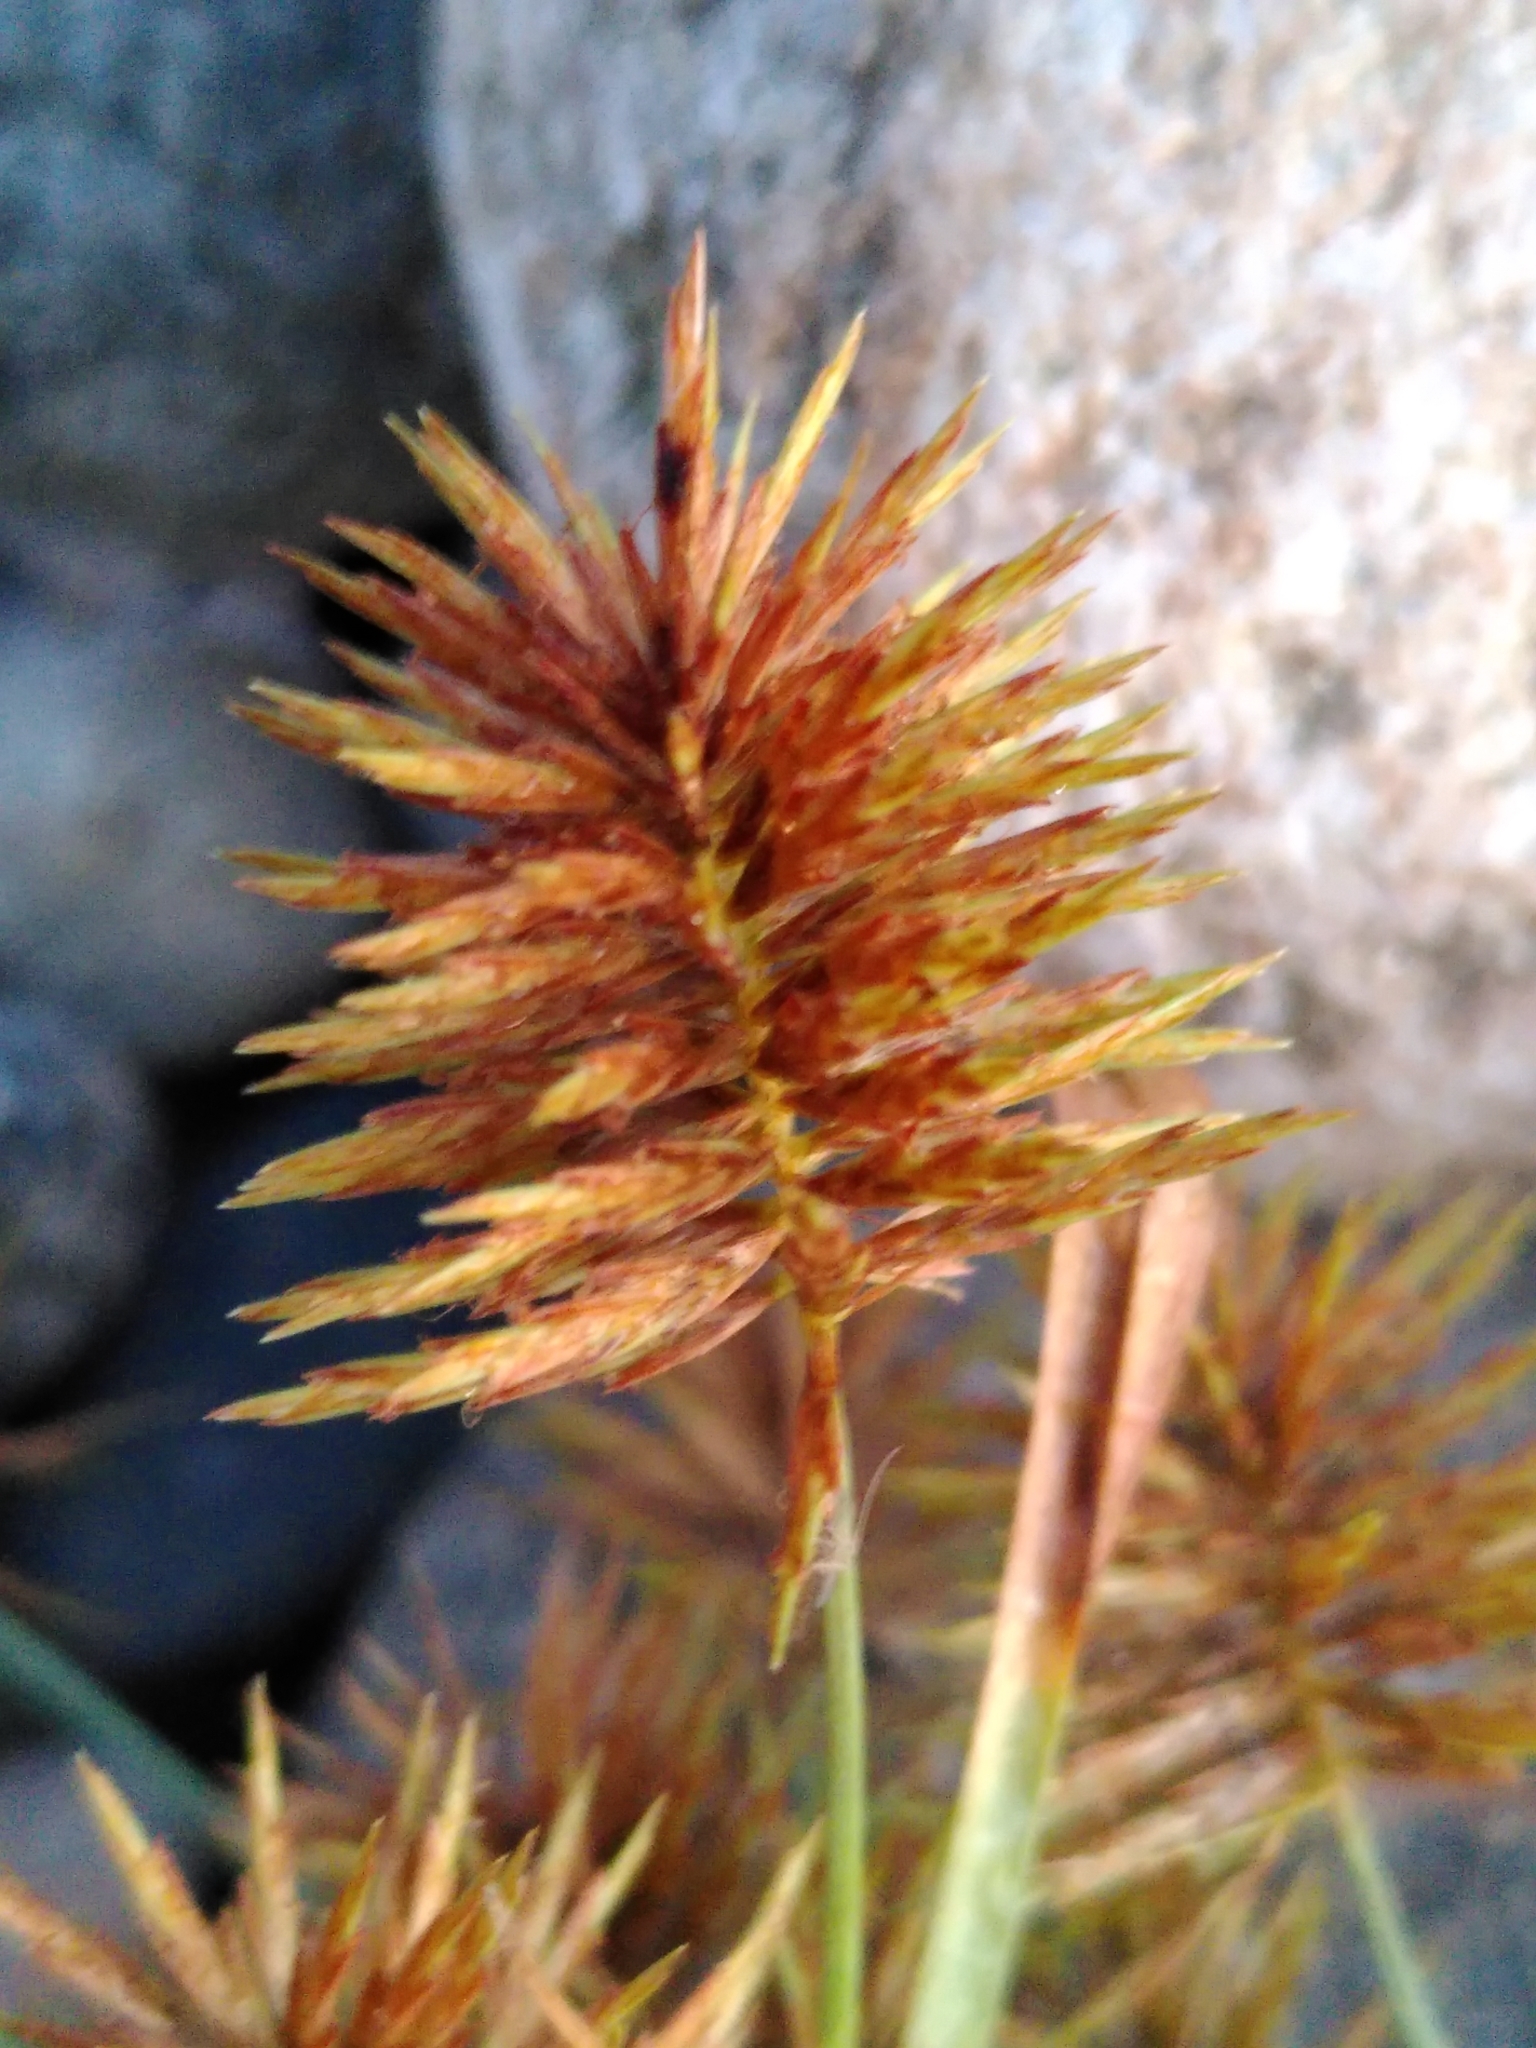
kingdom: Plantae
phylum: Tracheophyta
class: Liliopsida
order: Poales
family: Cyperaceae
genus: Cyperus
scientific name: Cyperus strigosus
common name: False nutsedge
